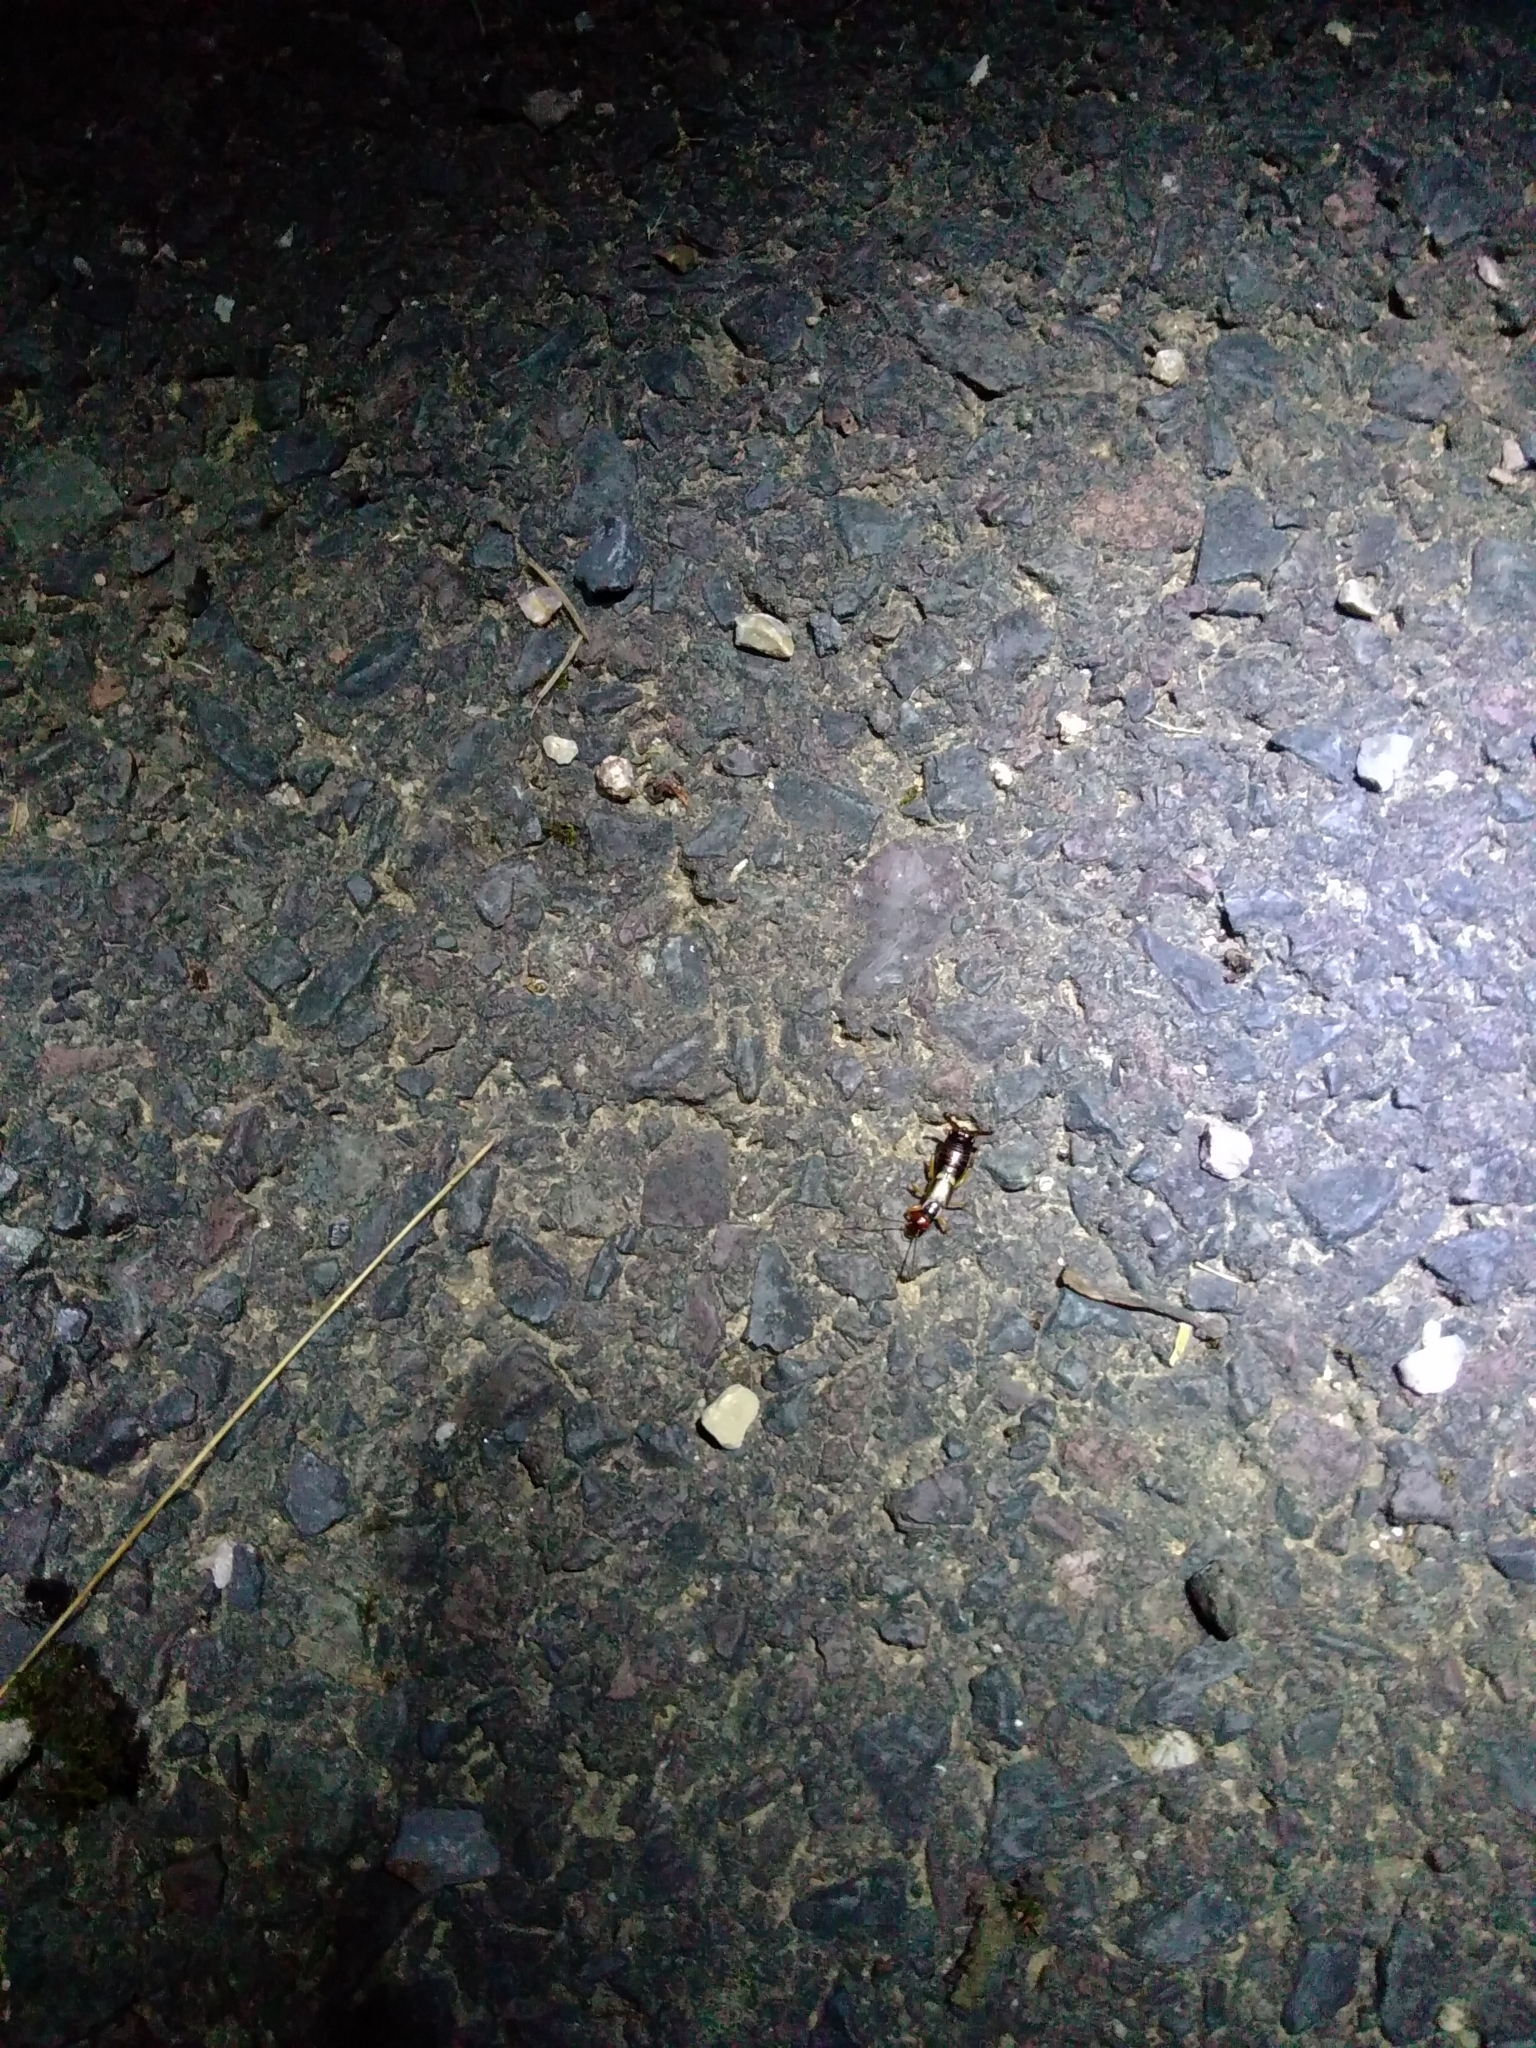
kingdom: Animalia
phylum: Arthropoda
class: Insecta
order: Dermaptera
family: Forficulidae
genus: Forficula
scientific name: Forficula
